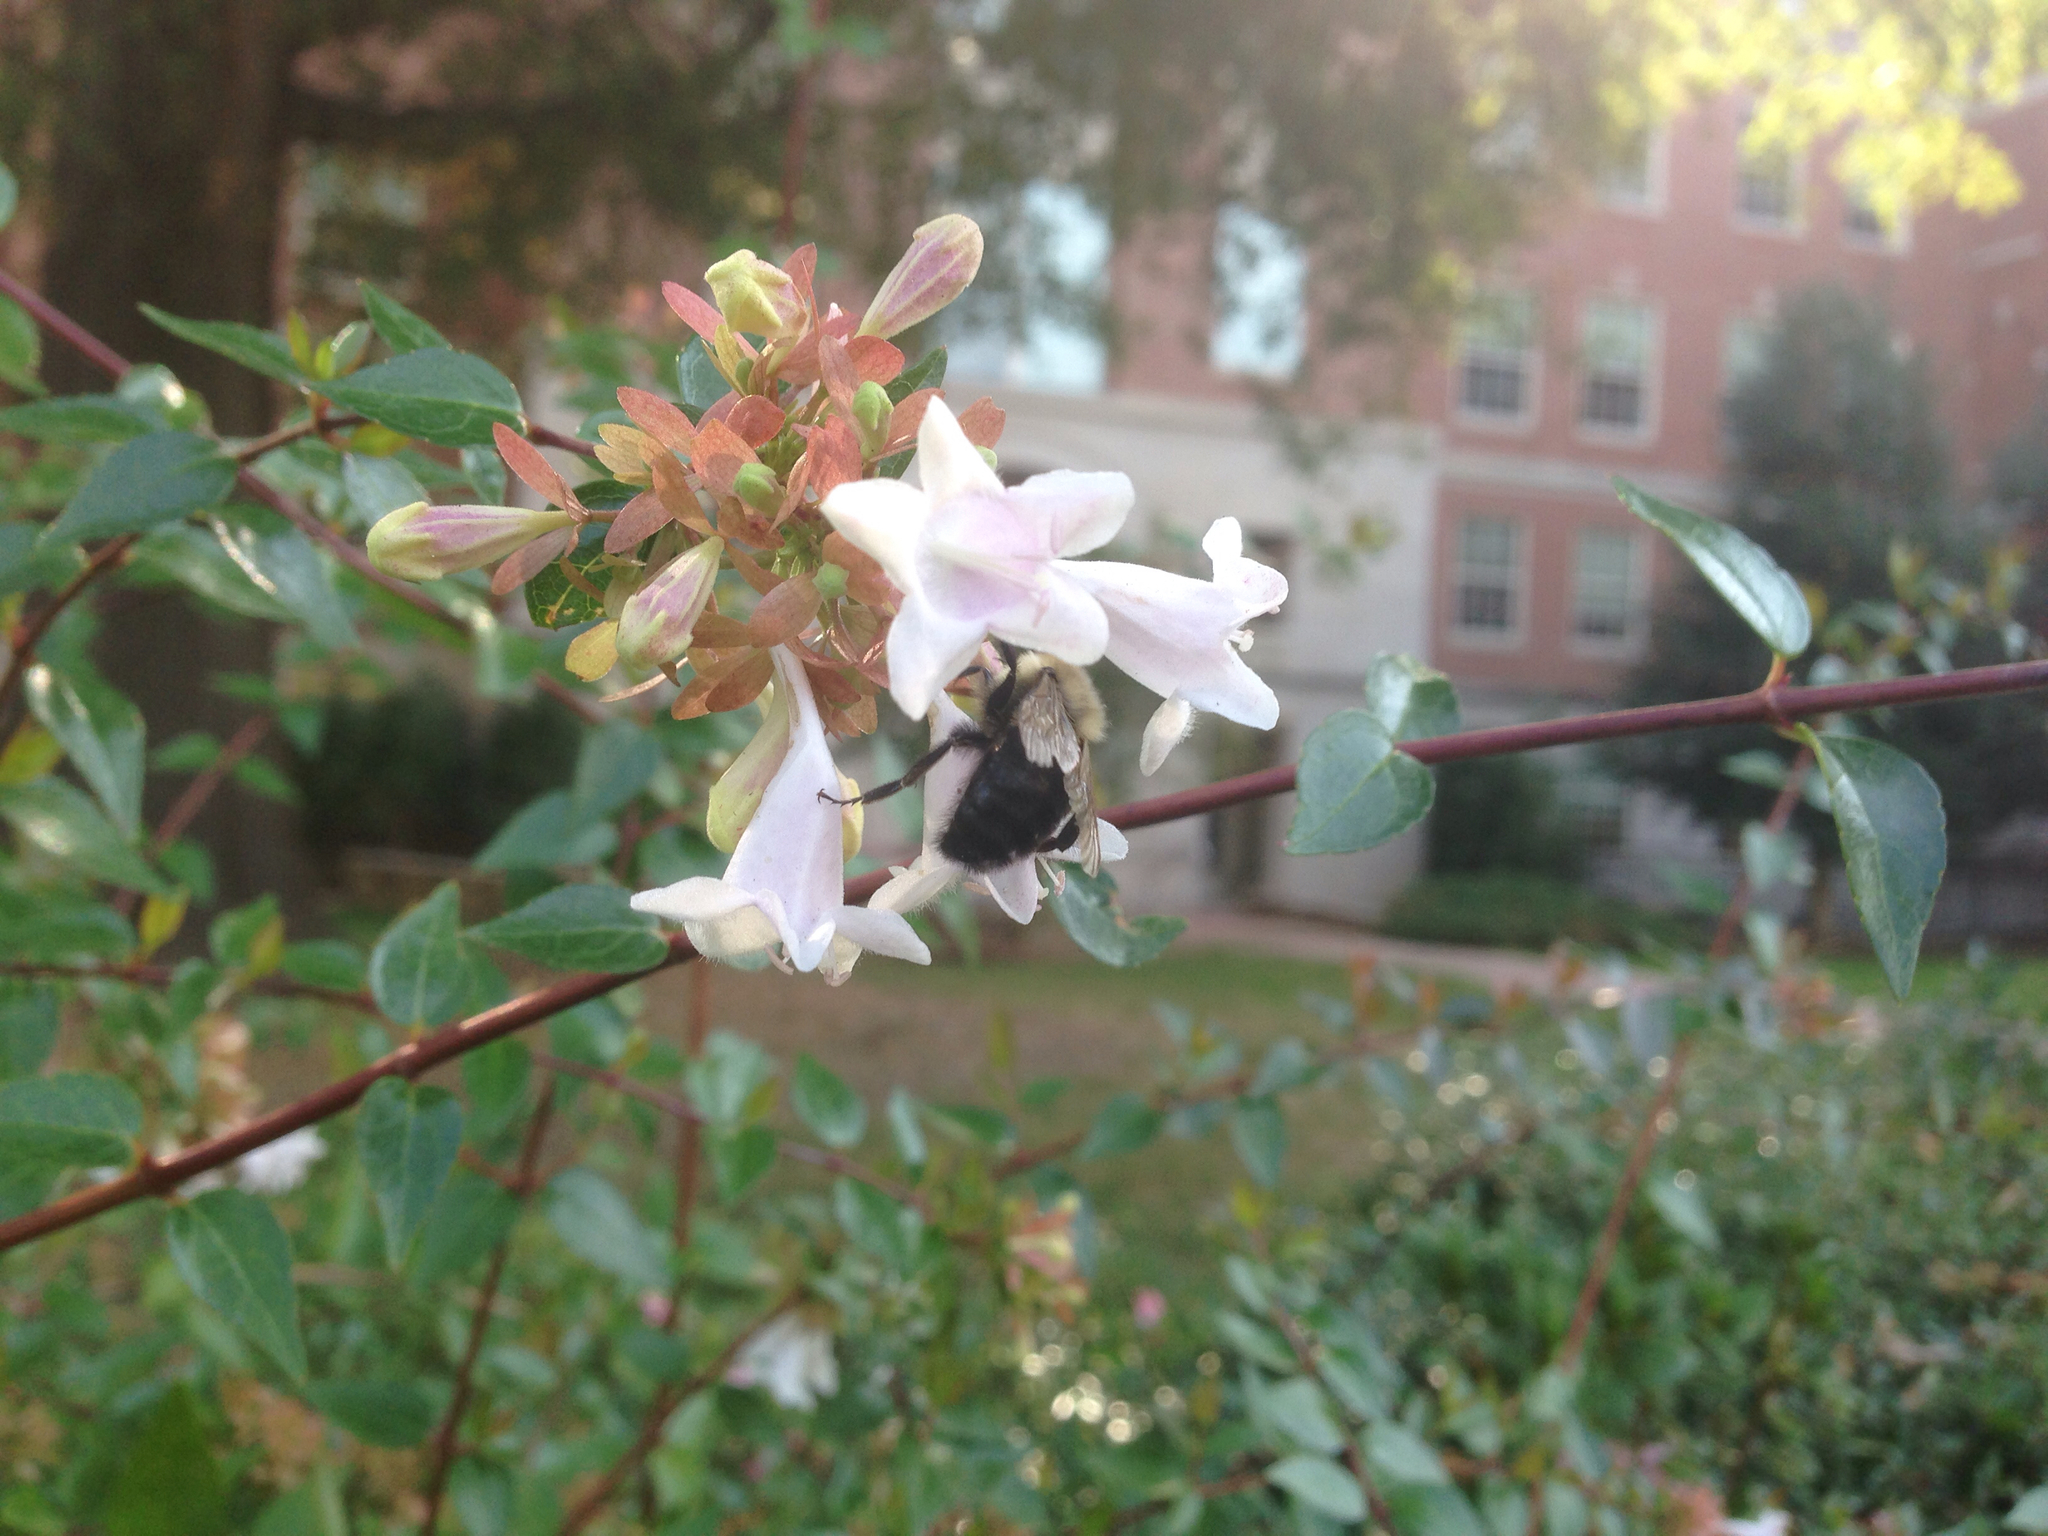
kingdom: Animalia
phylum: Arthropoda
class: Insecta
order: Hymenoptera
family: Apidae
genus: Bombus
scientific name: Bombus impatiens
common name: Common eastern bumble bee
